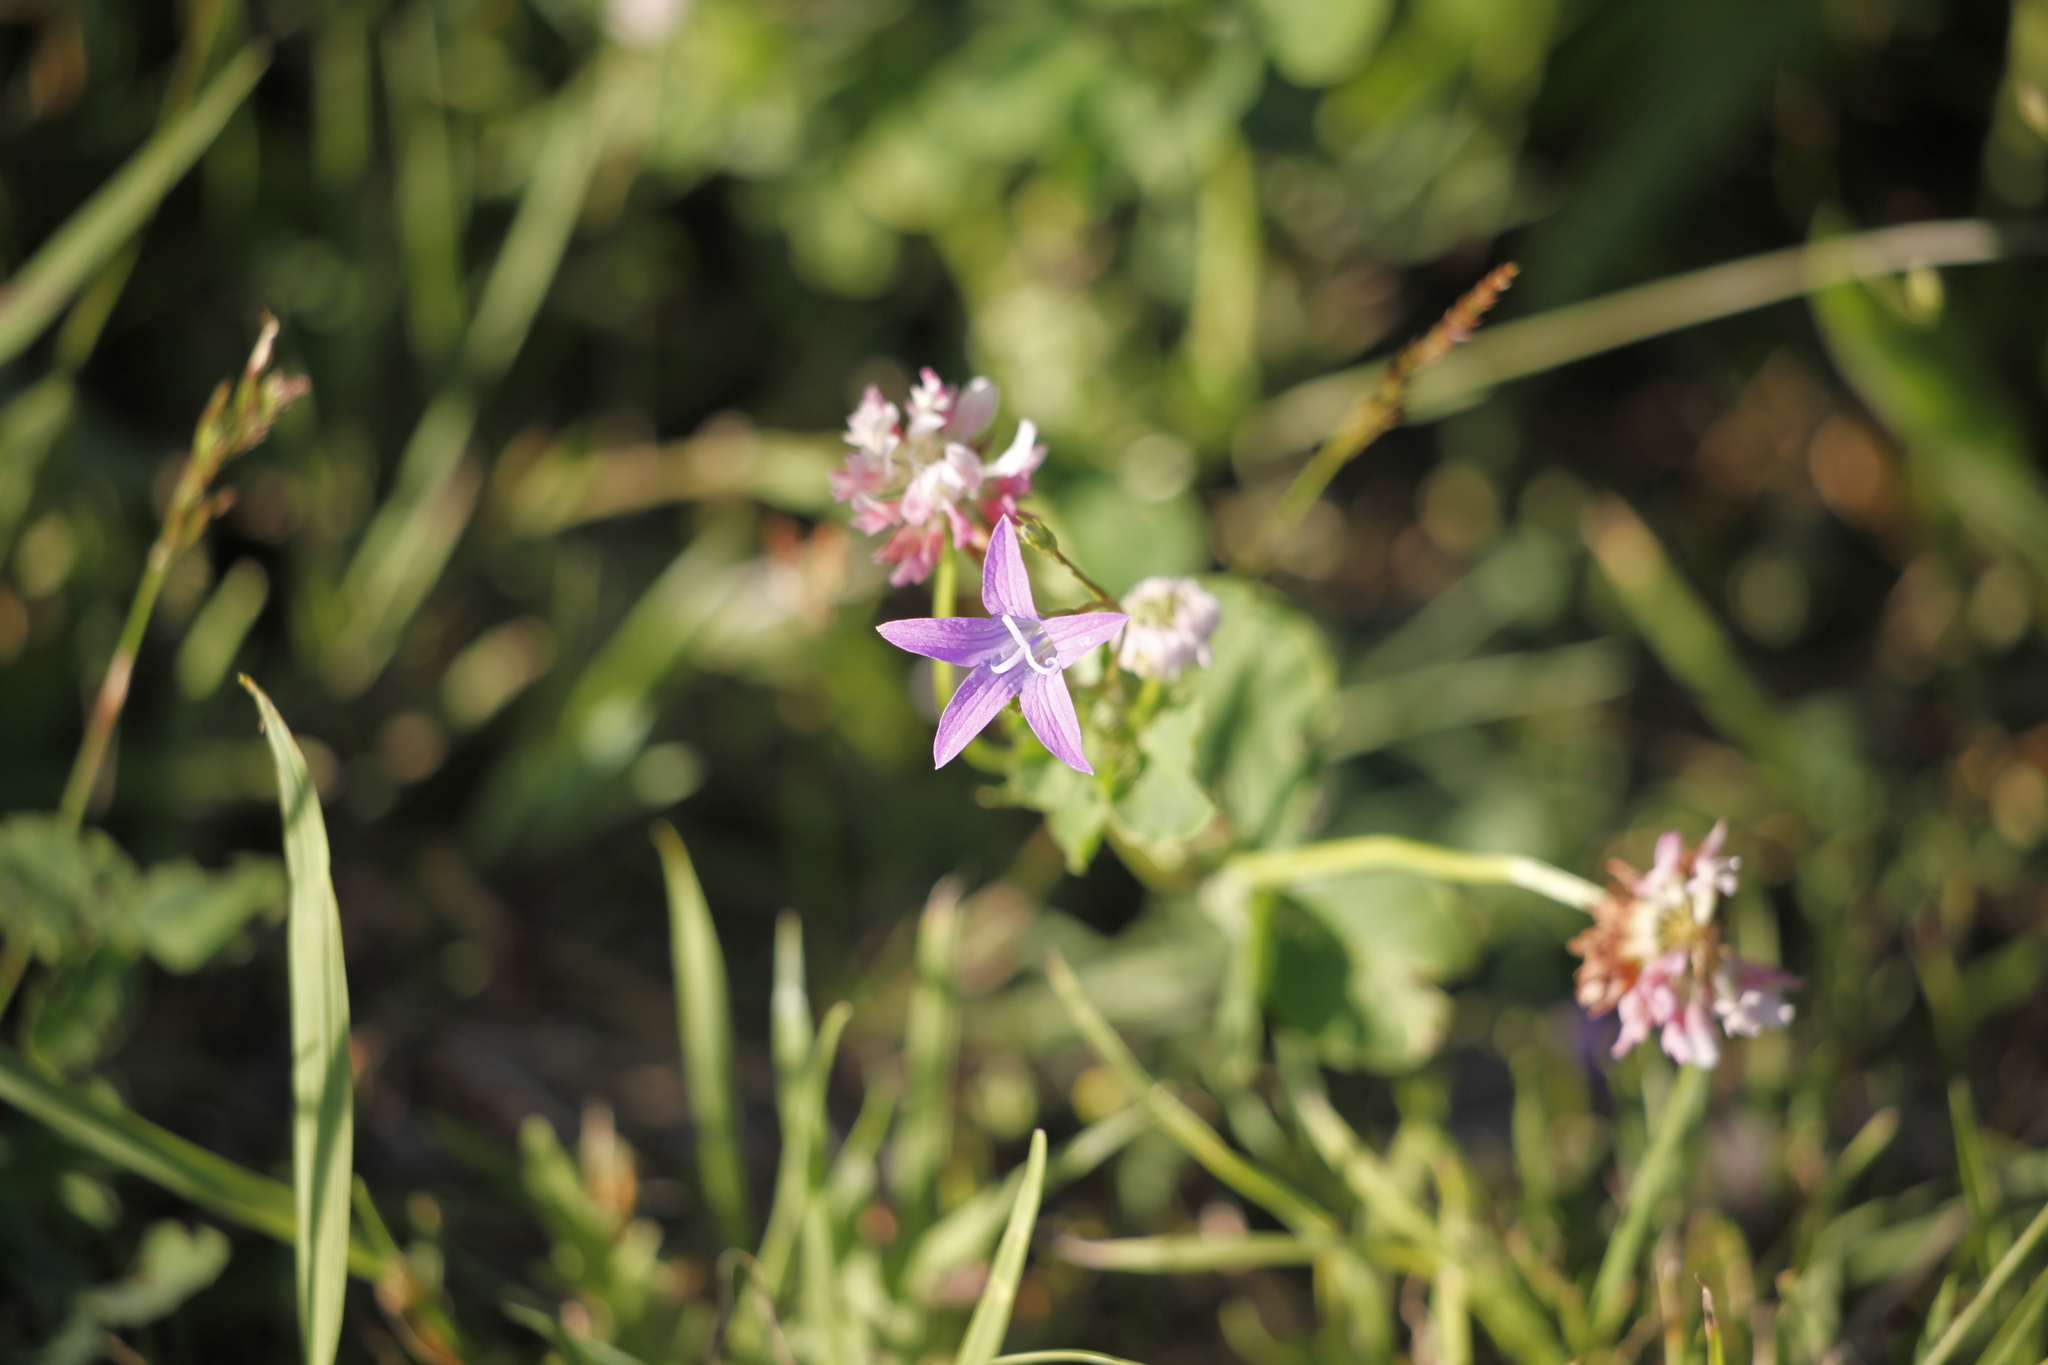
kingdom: Plantae
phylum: Tracheophyta
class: Magnoliopsida
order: Asterales
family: Campanulaceae
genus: Campanula
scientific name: Campanula patula
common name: Spreading bellflower
